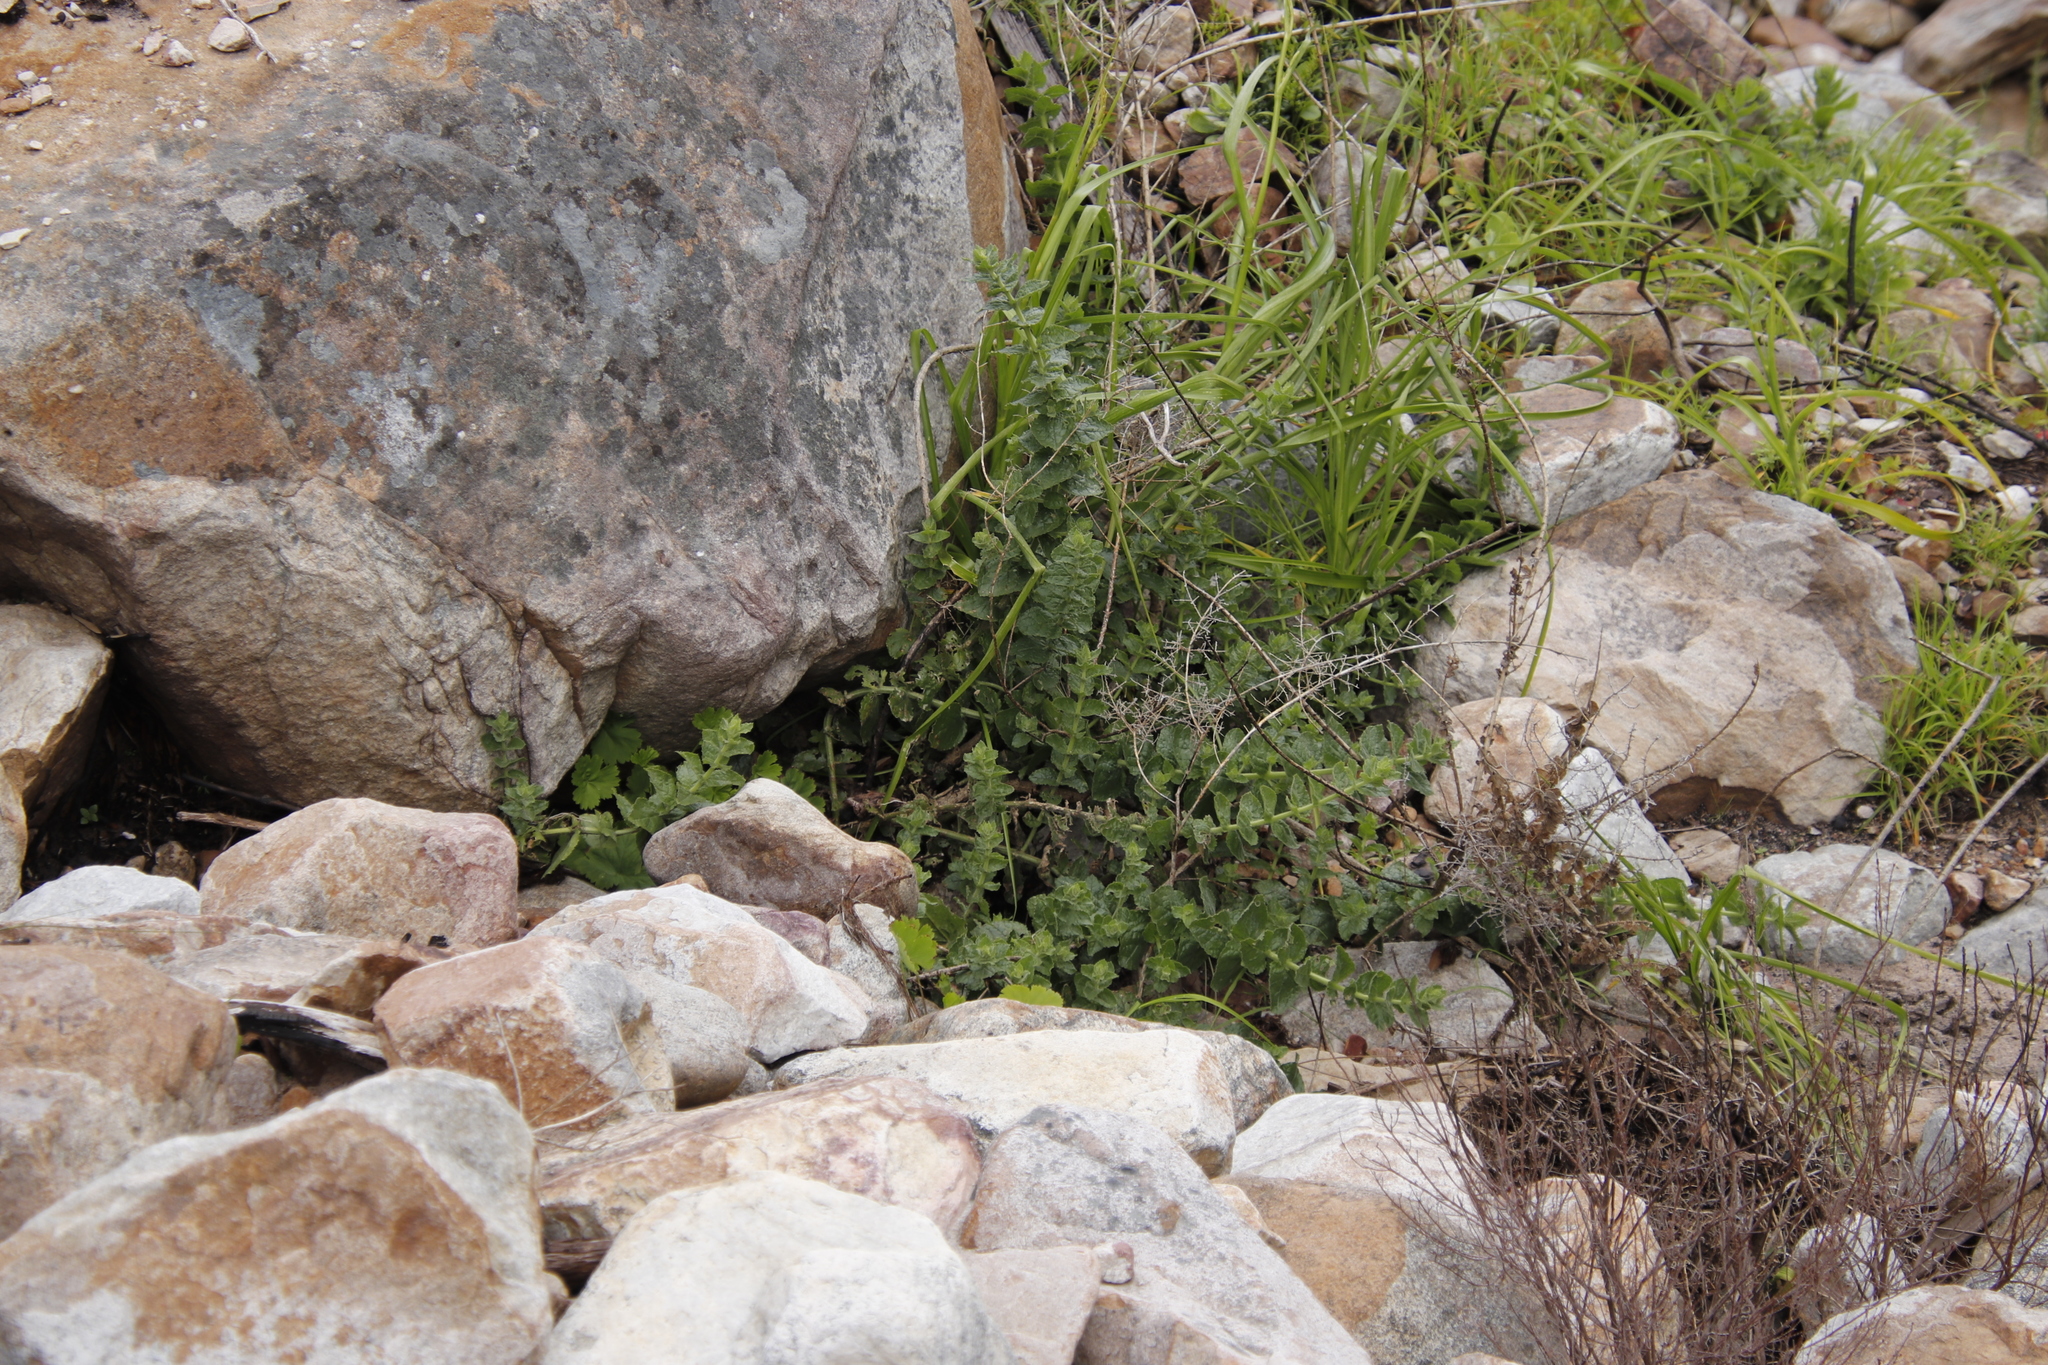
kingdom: Plantae
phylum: Tracheophyta
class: Magnoliopsida
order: Lamiales
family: Scrophulariaceae
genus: Oftia
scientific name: Oftia africana
